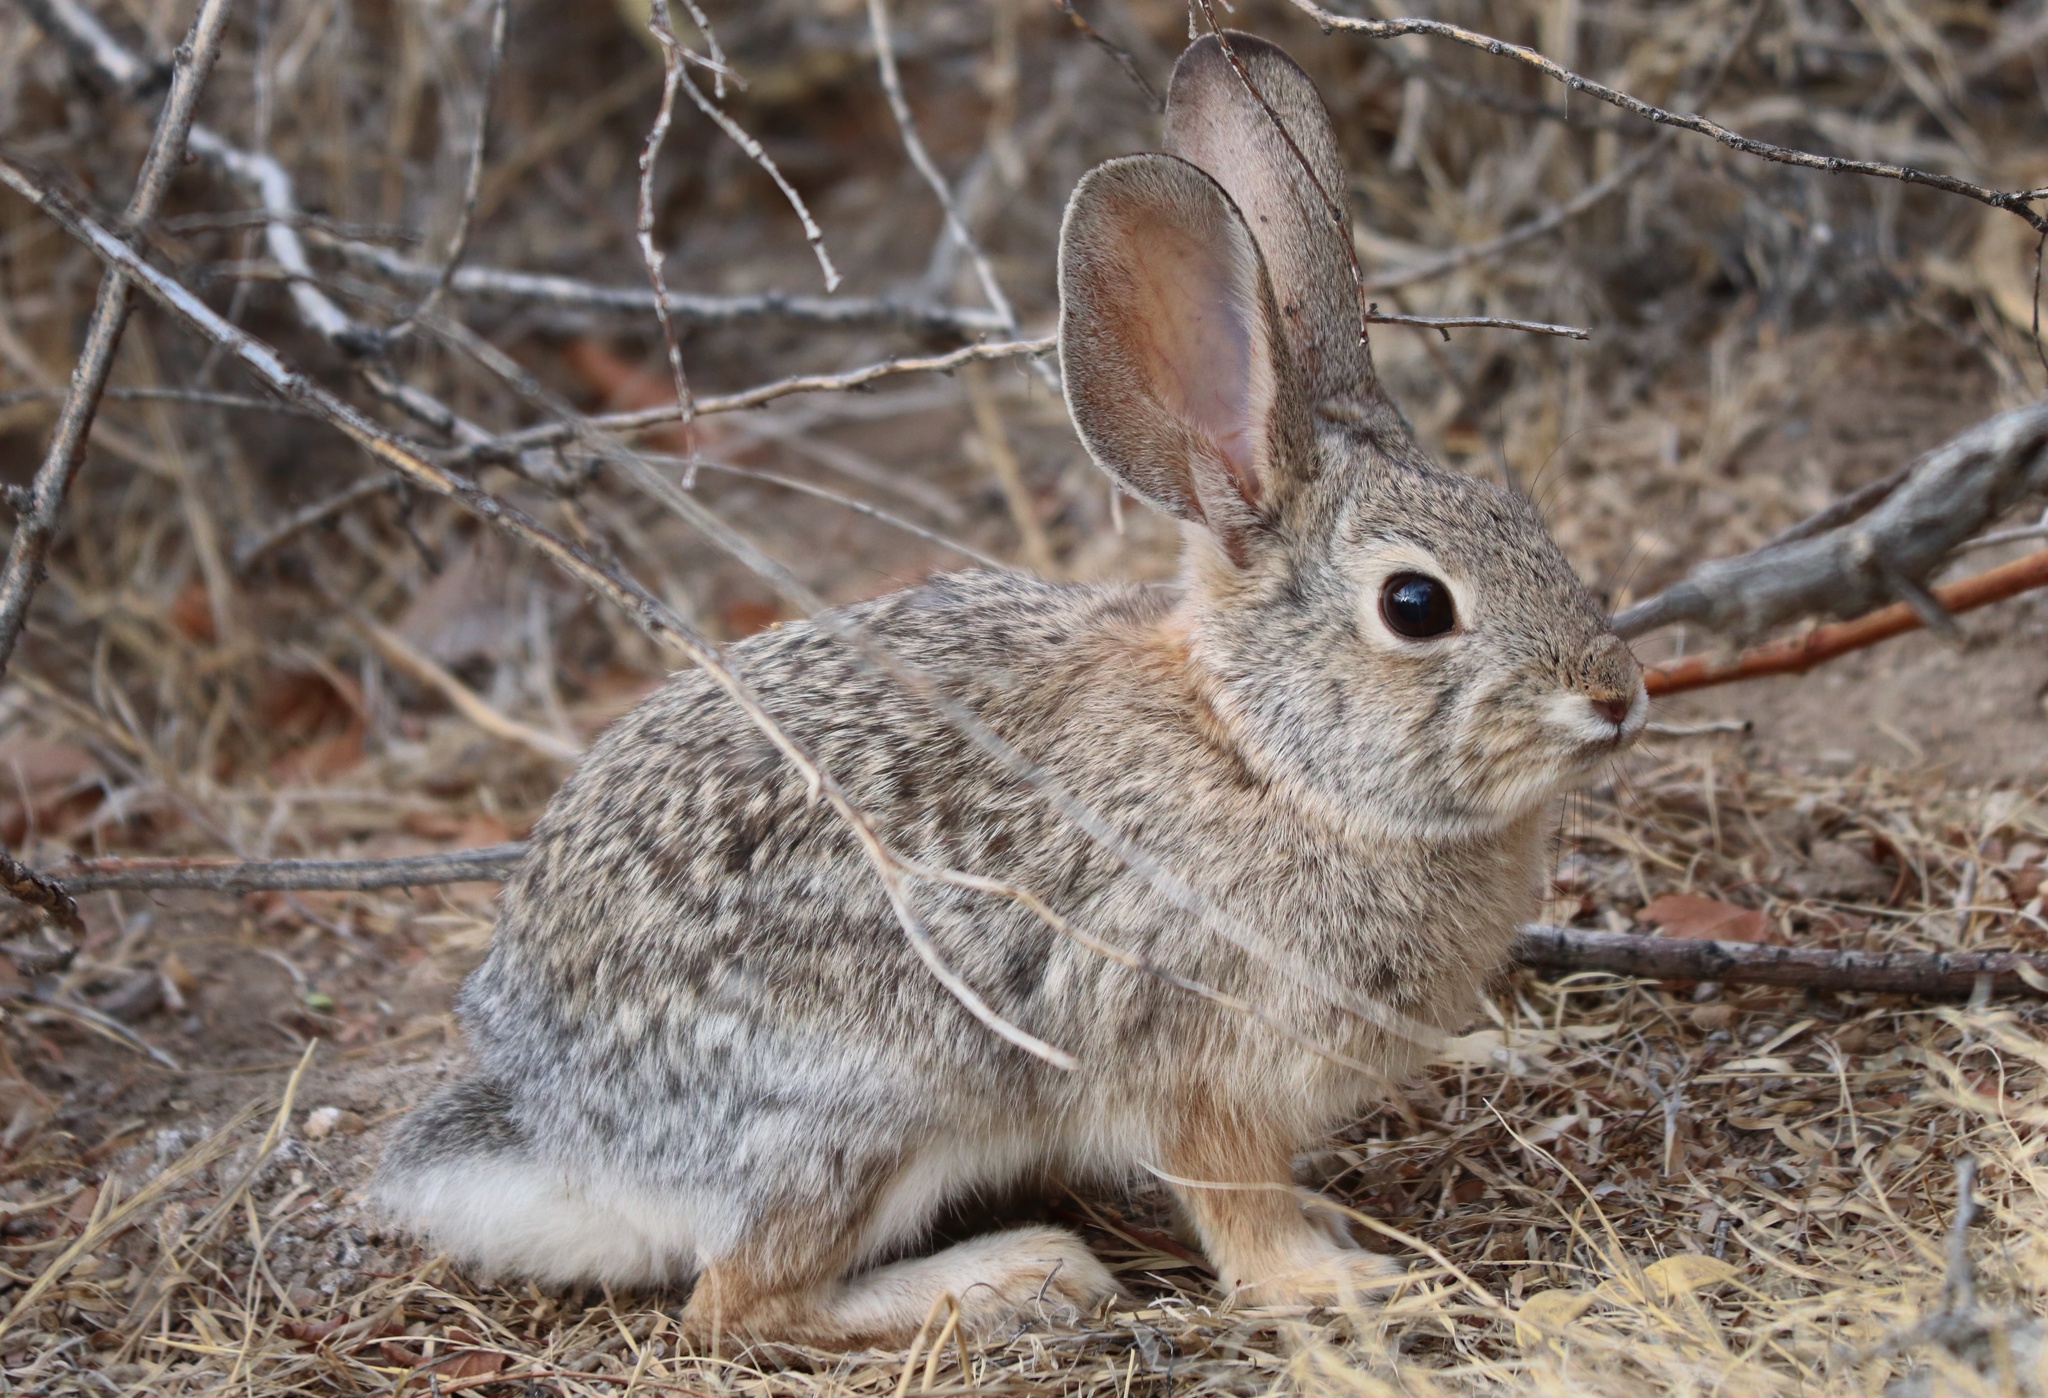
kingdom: Animalia
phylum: Chordata
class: Mammalia
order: Lagomorpha
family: Leporidae
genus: Sylvilagus
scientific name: Sylvilagus audubonii
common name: Desert cottontail
